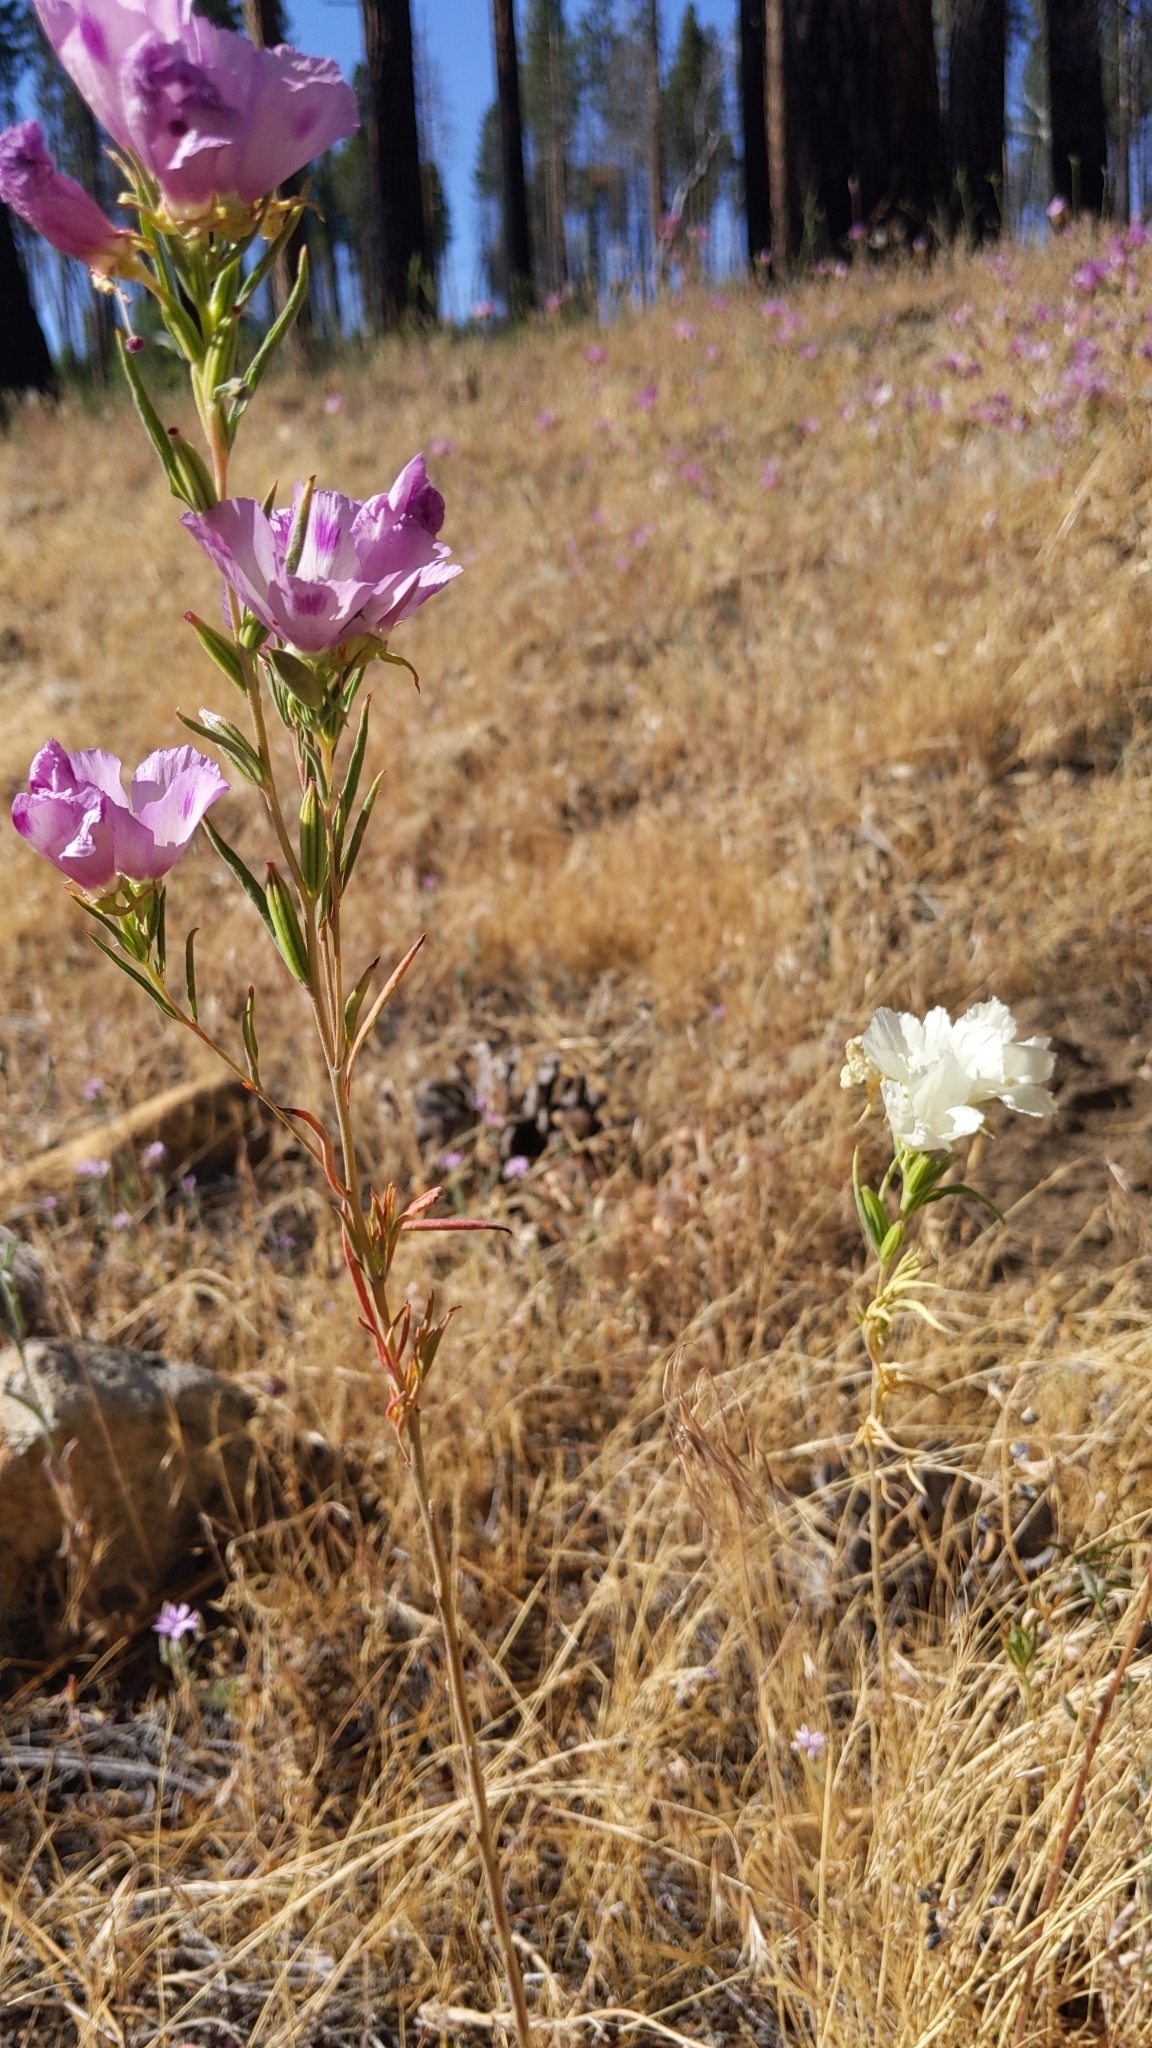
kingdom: Plantae
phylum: Tracheophyta
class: Magnoliopsida
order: Myrtales
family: Onagraceae
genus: Clarkia
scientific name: Clarkia williamsonii
